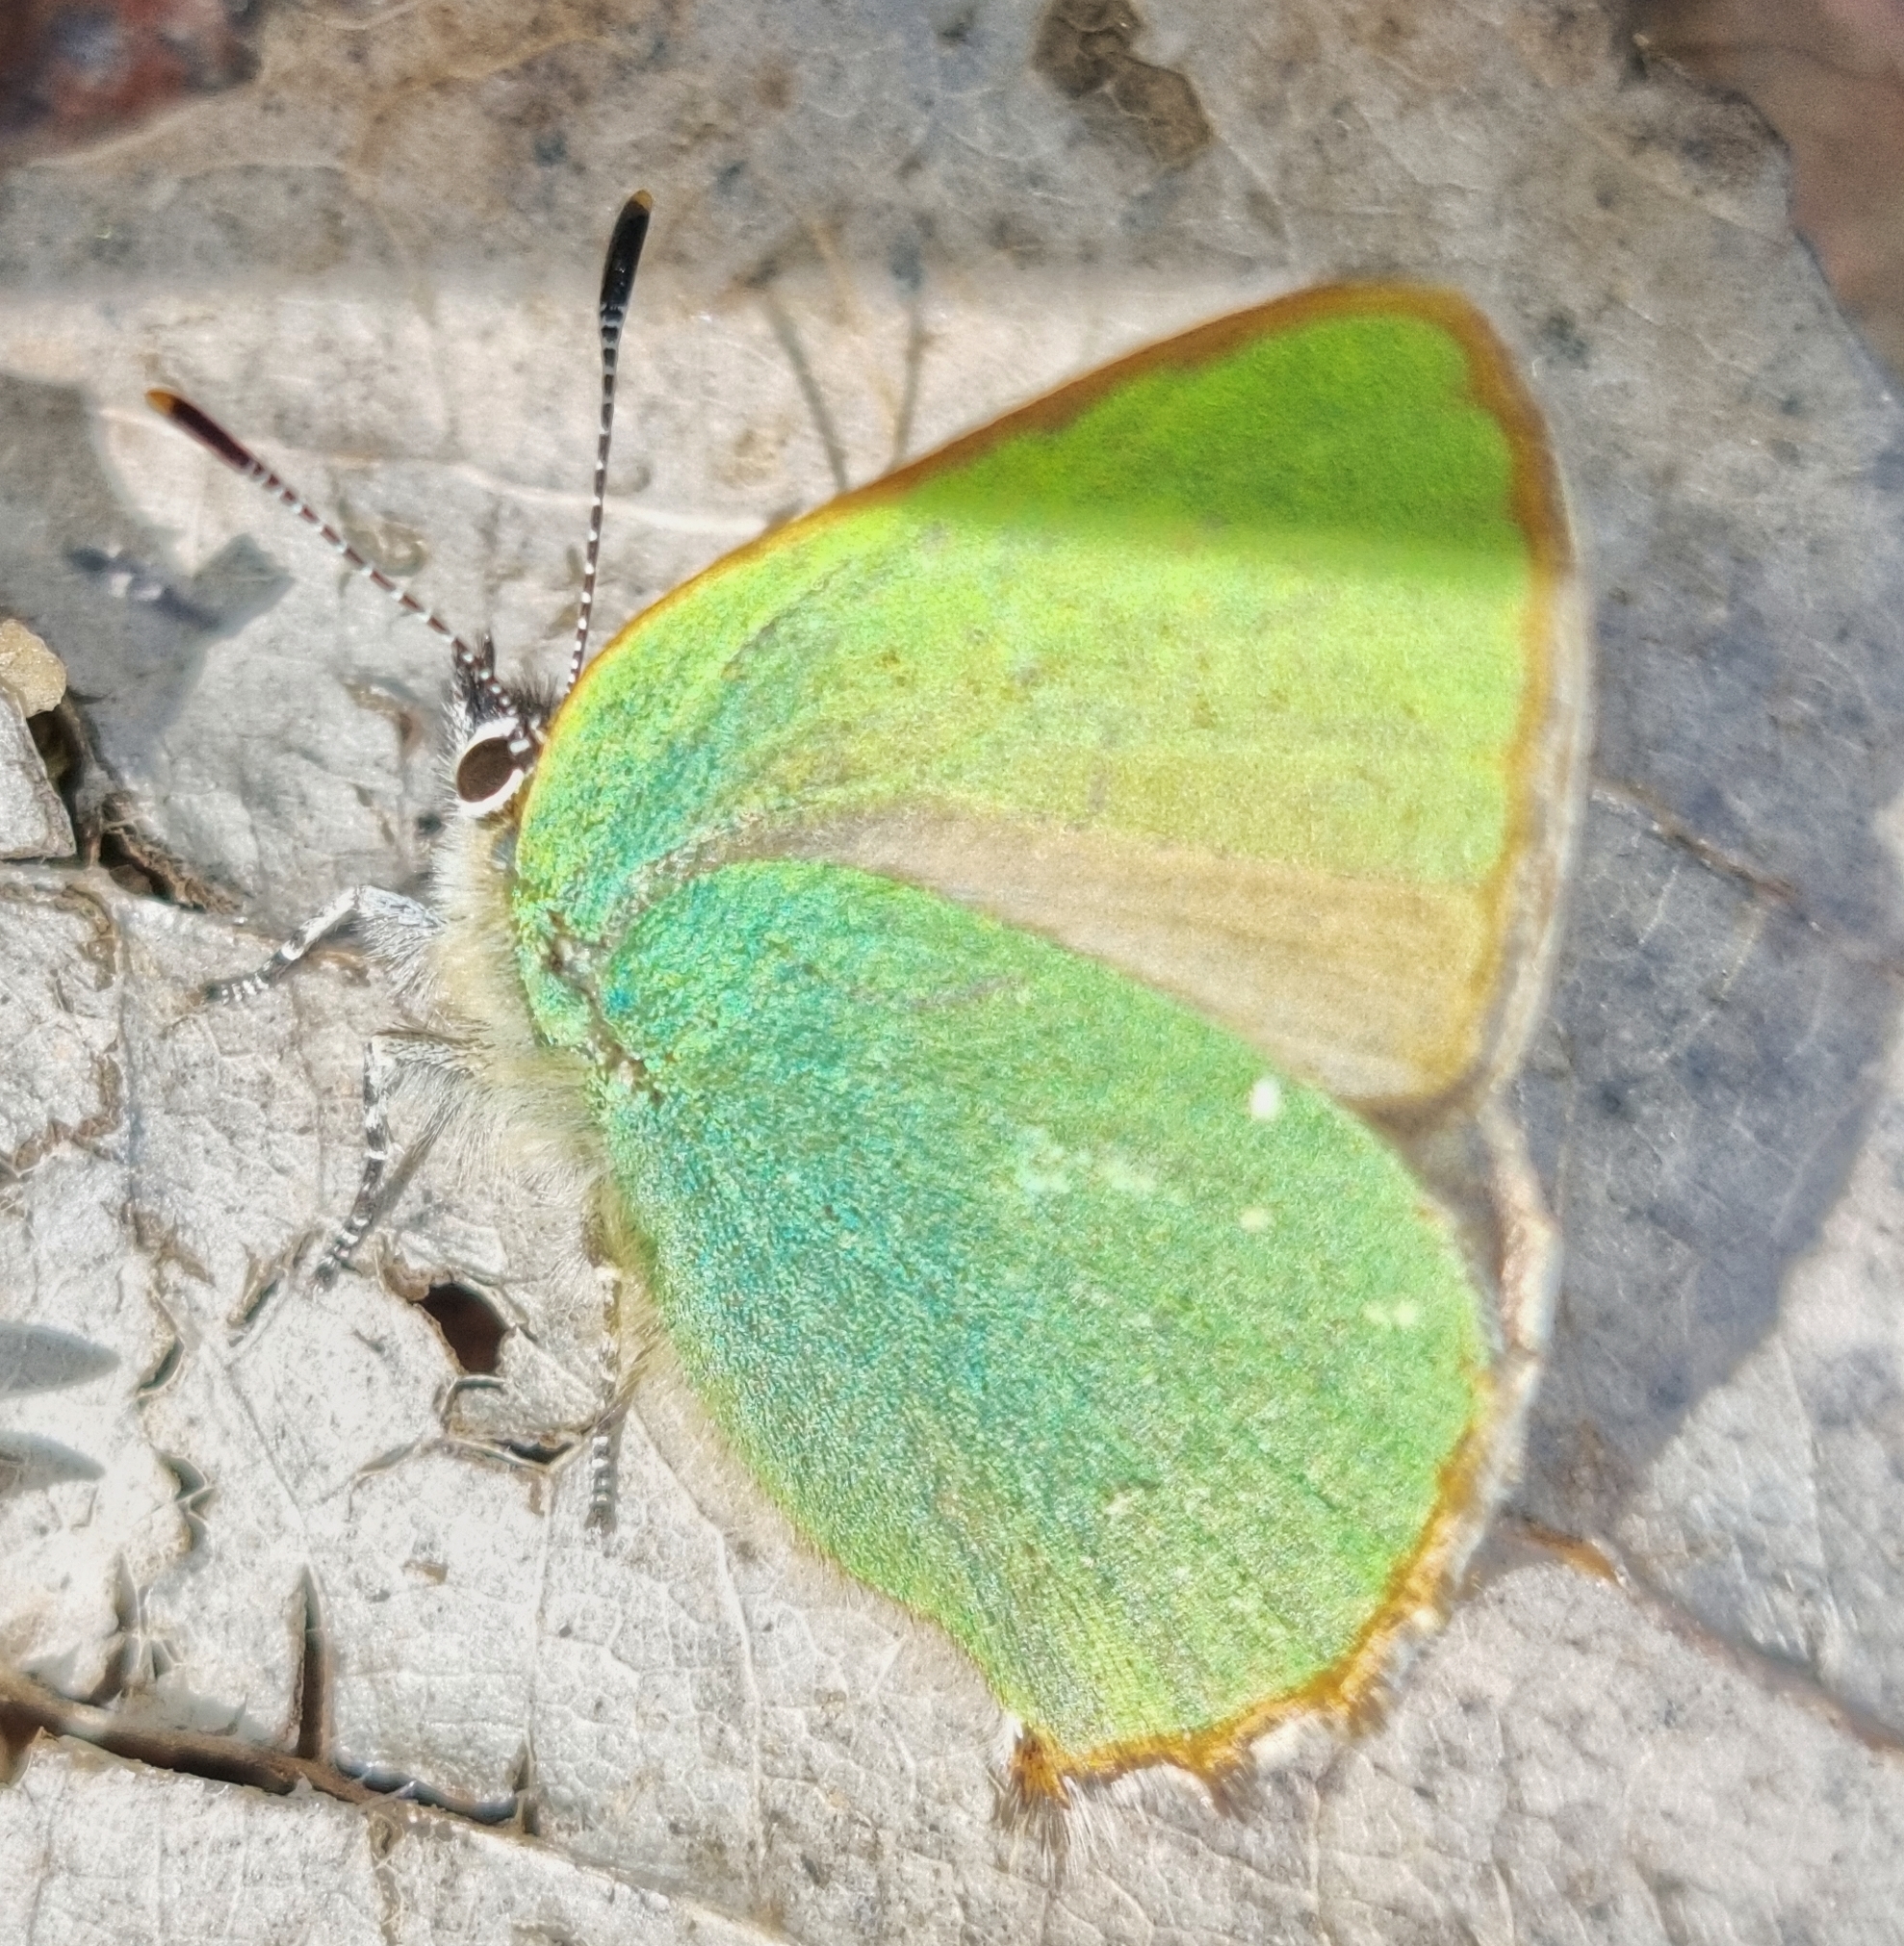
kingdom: Animalia
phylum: Arthropoda
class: Insecta
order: Lepidoptera
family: Lycaenidae
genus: Callophrys
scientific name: Callophrys rubi
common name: Green hairstreak
